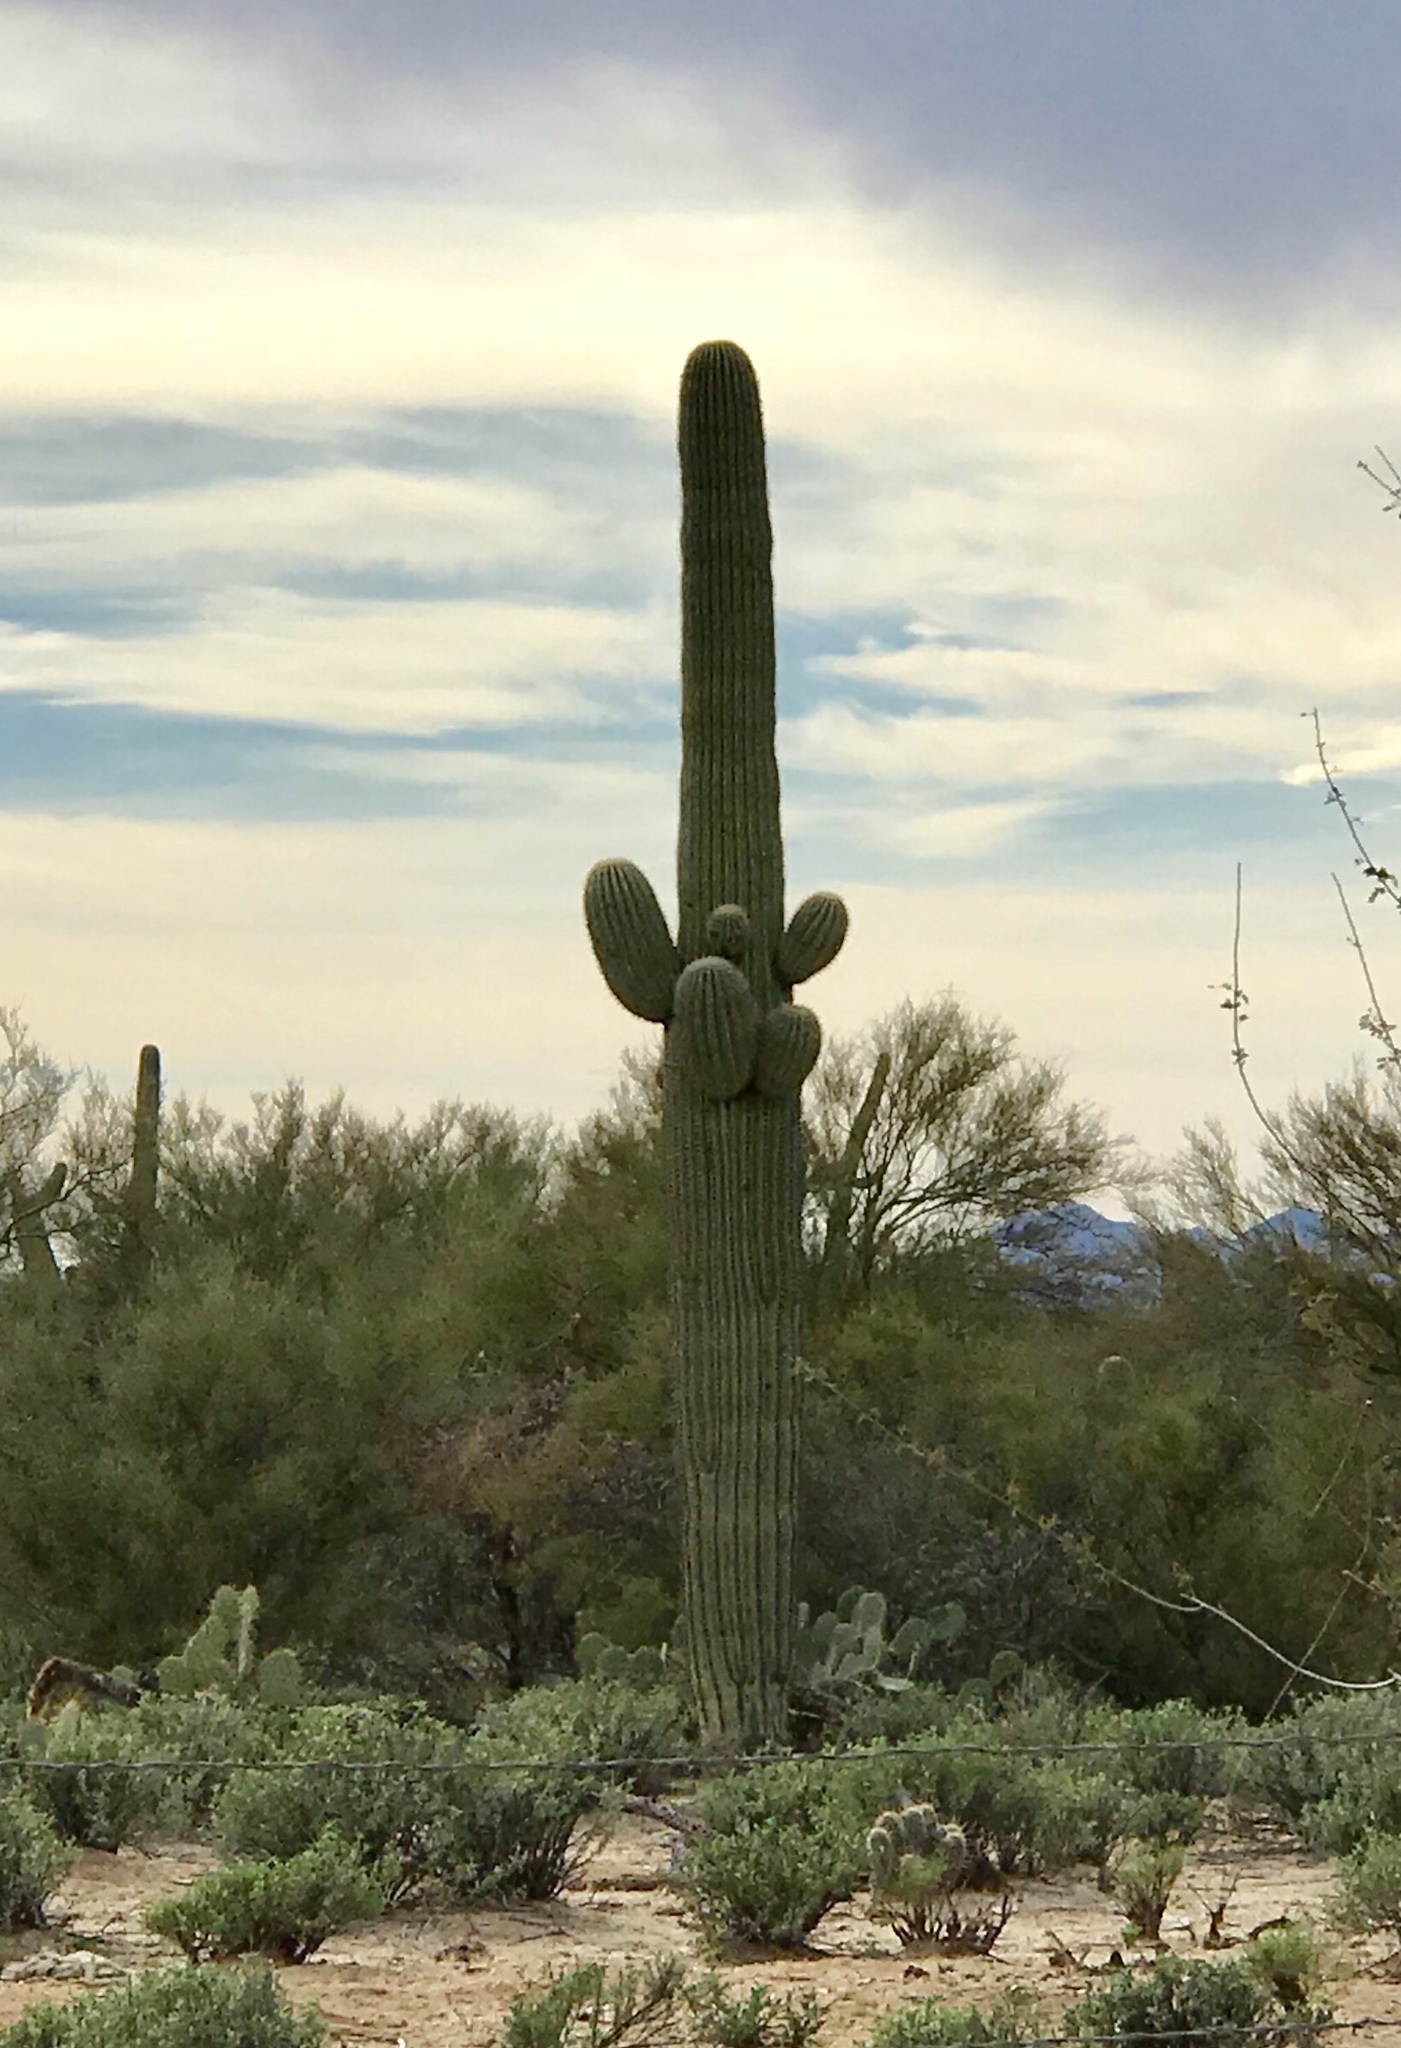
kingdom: Plantae
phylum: Tracheophyta
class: Magnoliopsida
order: Caryophyllales
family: Cactaceae
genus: Carnegiea
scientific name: Carnegiea gigantea
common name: Saguaro
